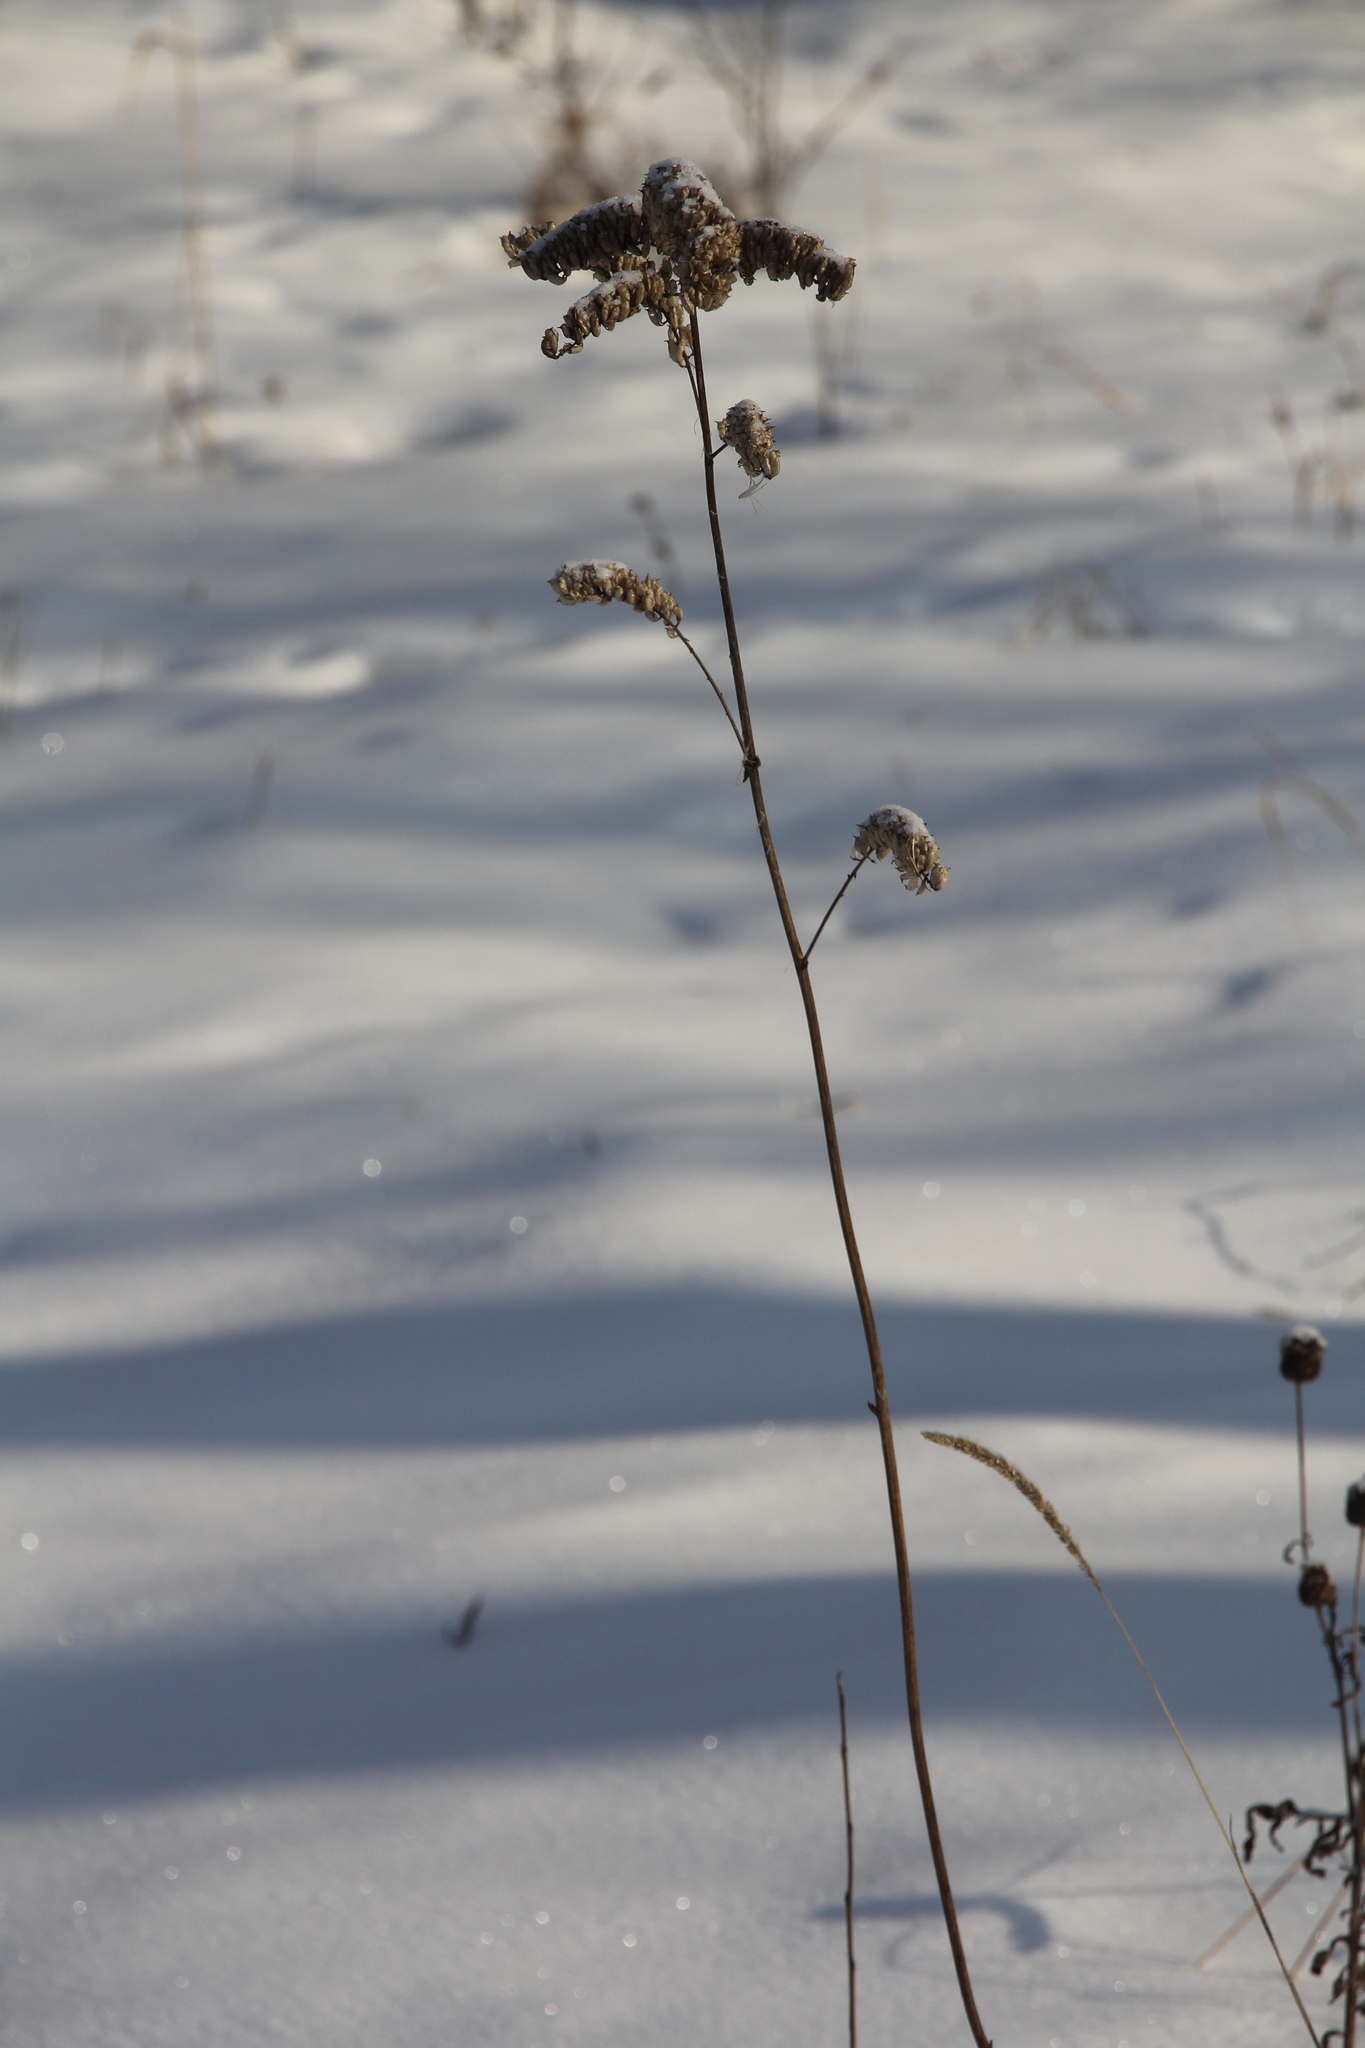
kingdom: Plantae
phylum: Tracheophyta
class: Magnoliopsida
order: Ranunculales
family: Ranunculaceae
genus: Actaea
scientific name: Actaea cimicifuga
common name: Chinese cimicifuga
